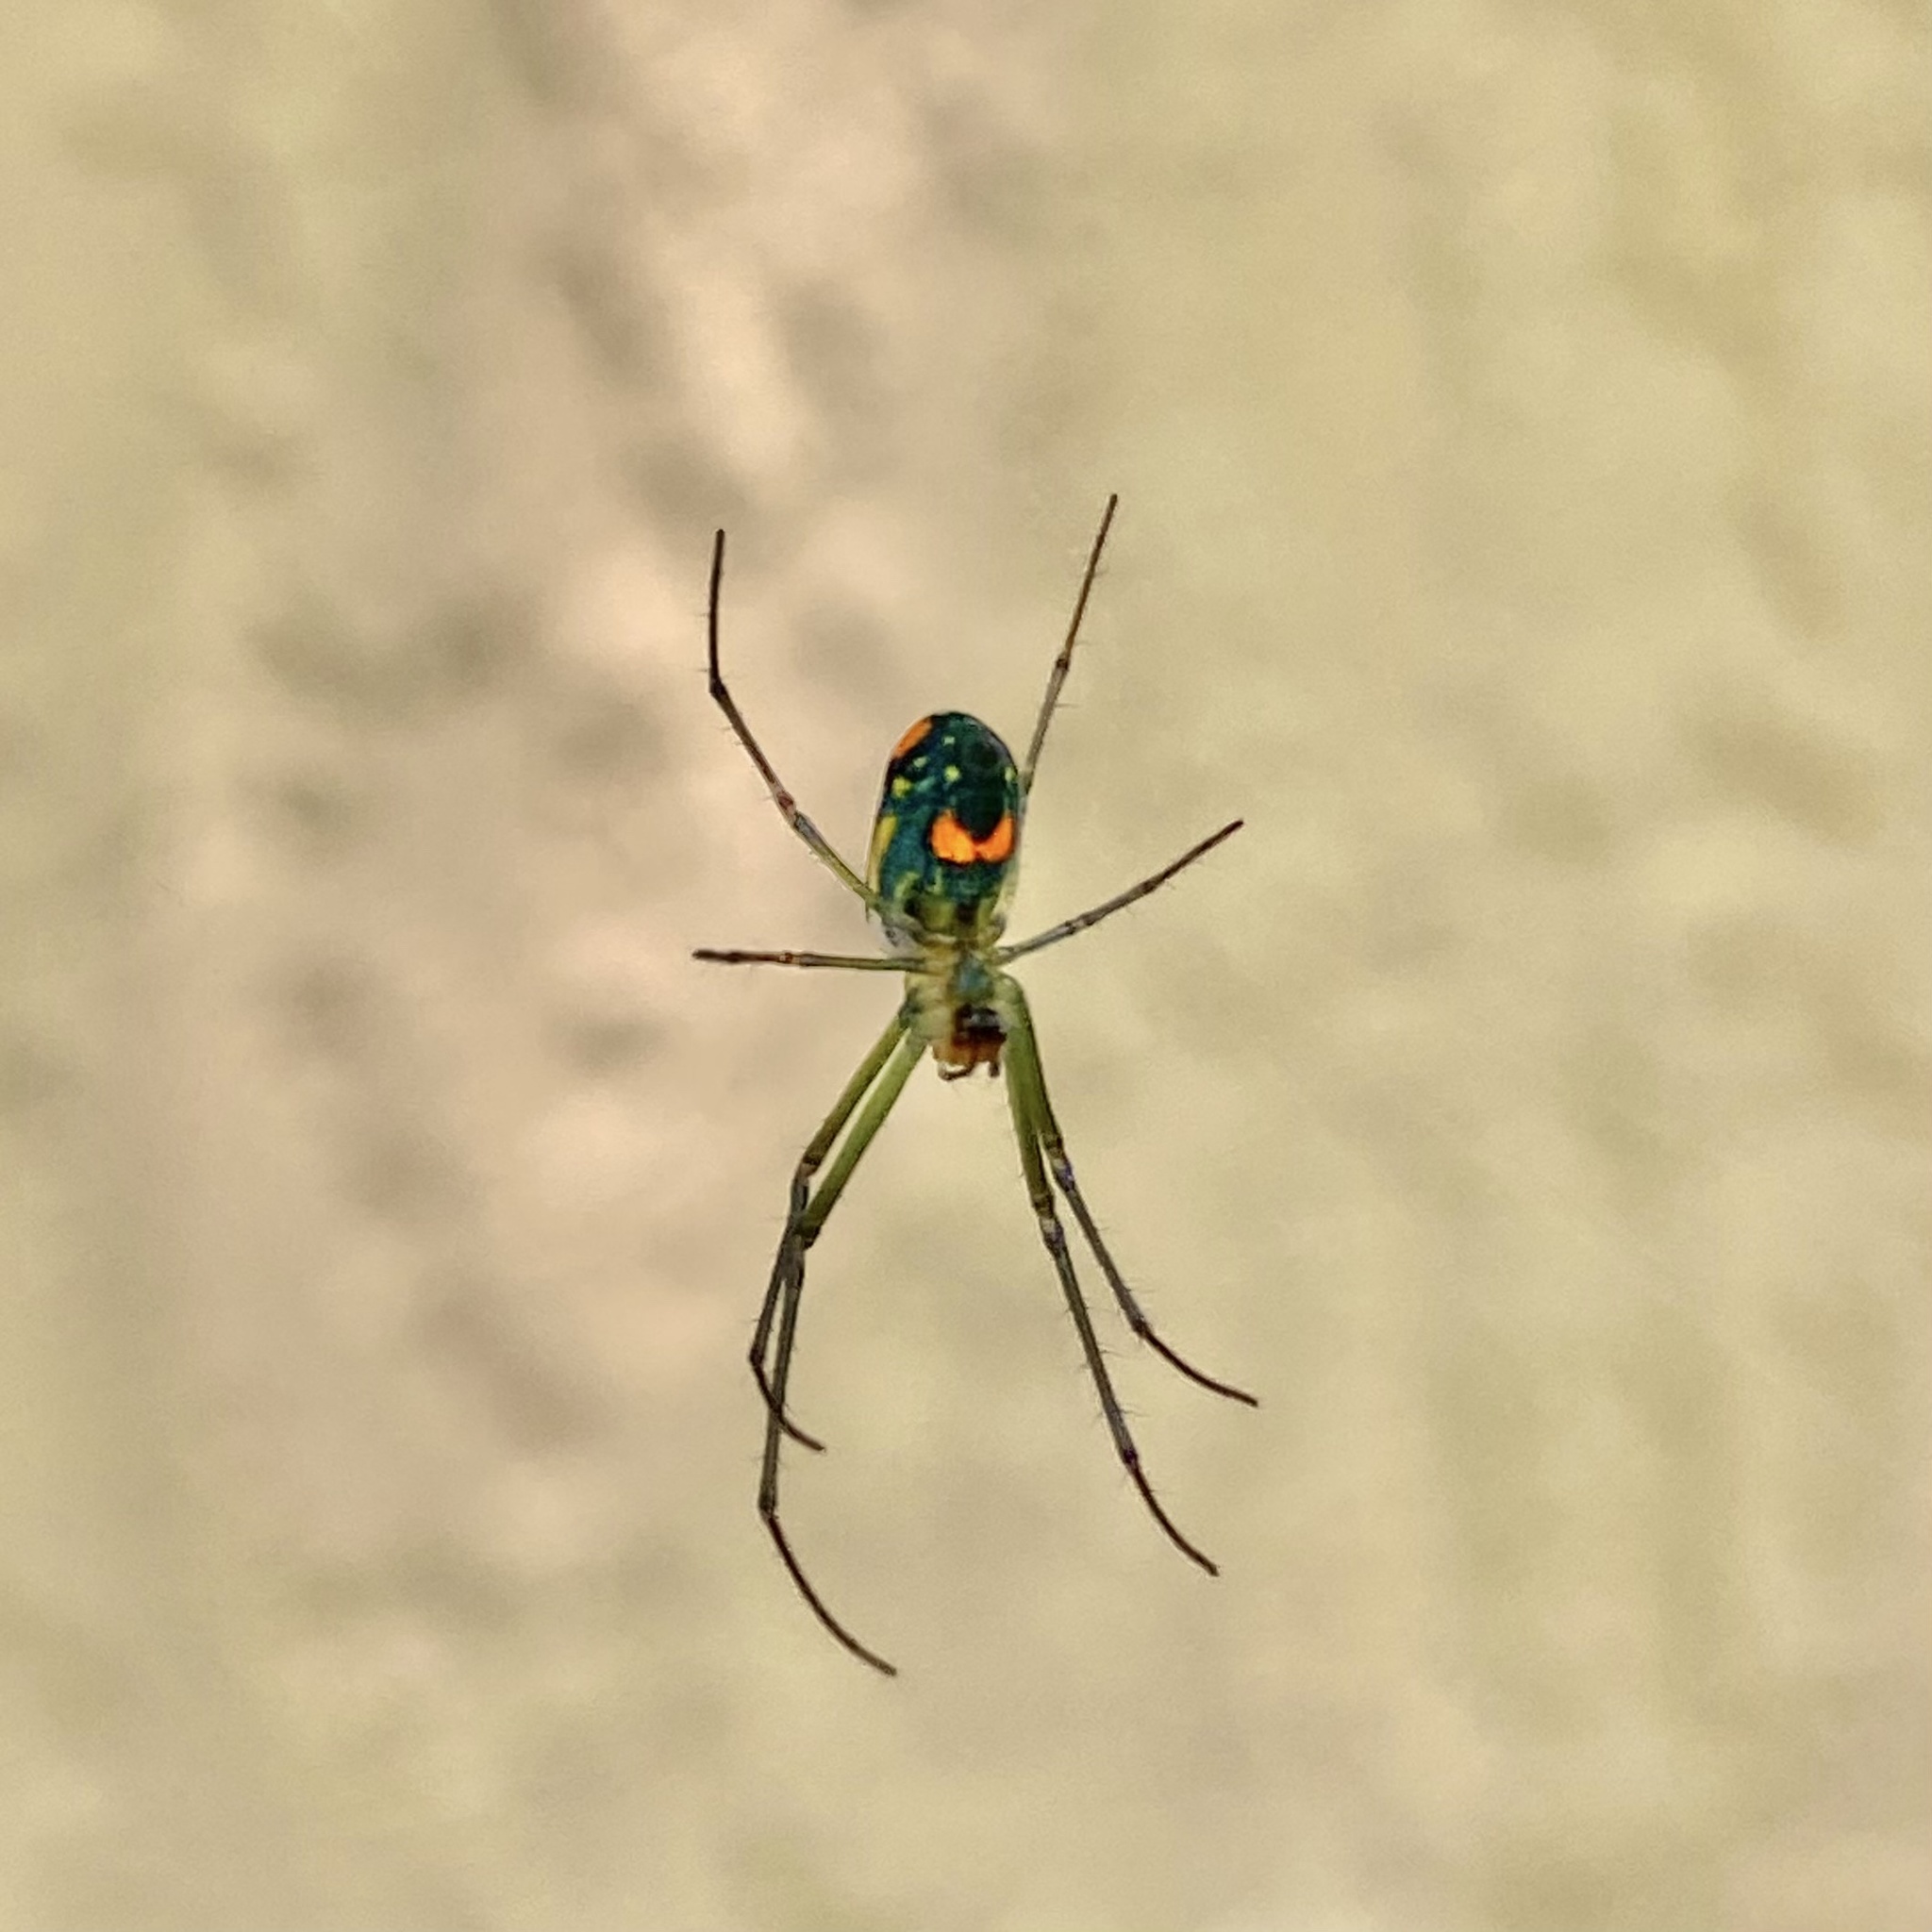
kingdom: Animalia
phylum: Arthropoda
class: Arachnida
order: Araneae
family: Tetragnathidae
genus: Leucauge
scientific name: Leucauge argyrobapta
